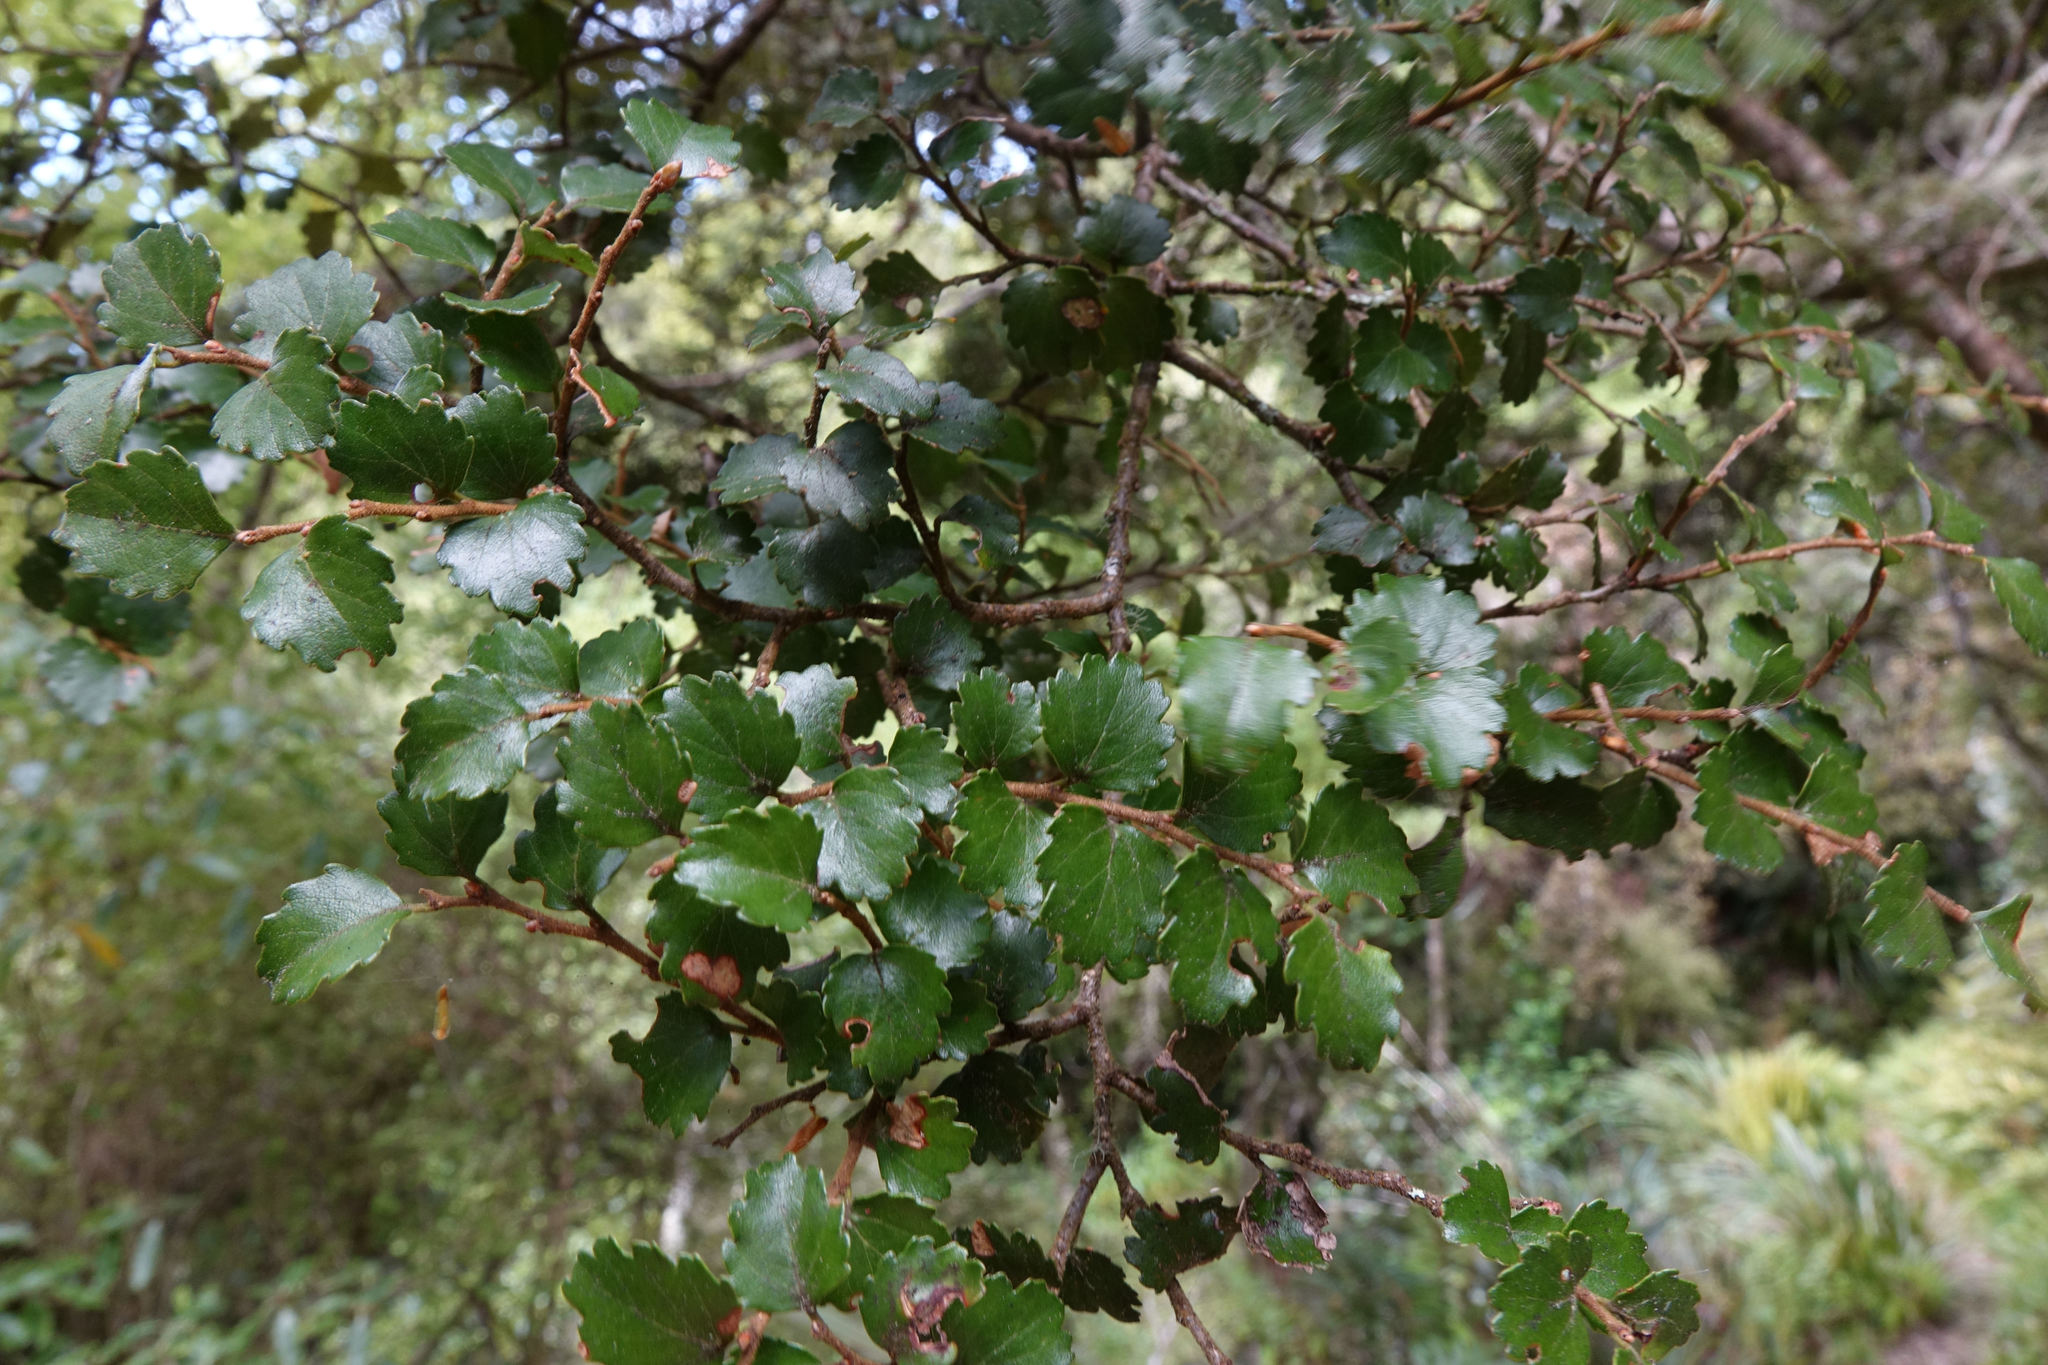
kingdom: Plantae
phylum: Tracheophyta
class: Magnoliopsida
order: Fagales
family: Nothofagaceae
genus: Nothofagus
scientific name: Nothofagus menziesii
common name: Silver beech
